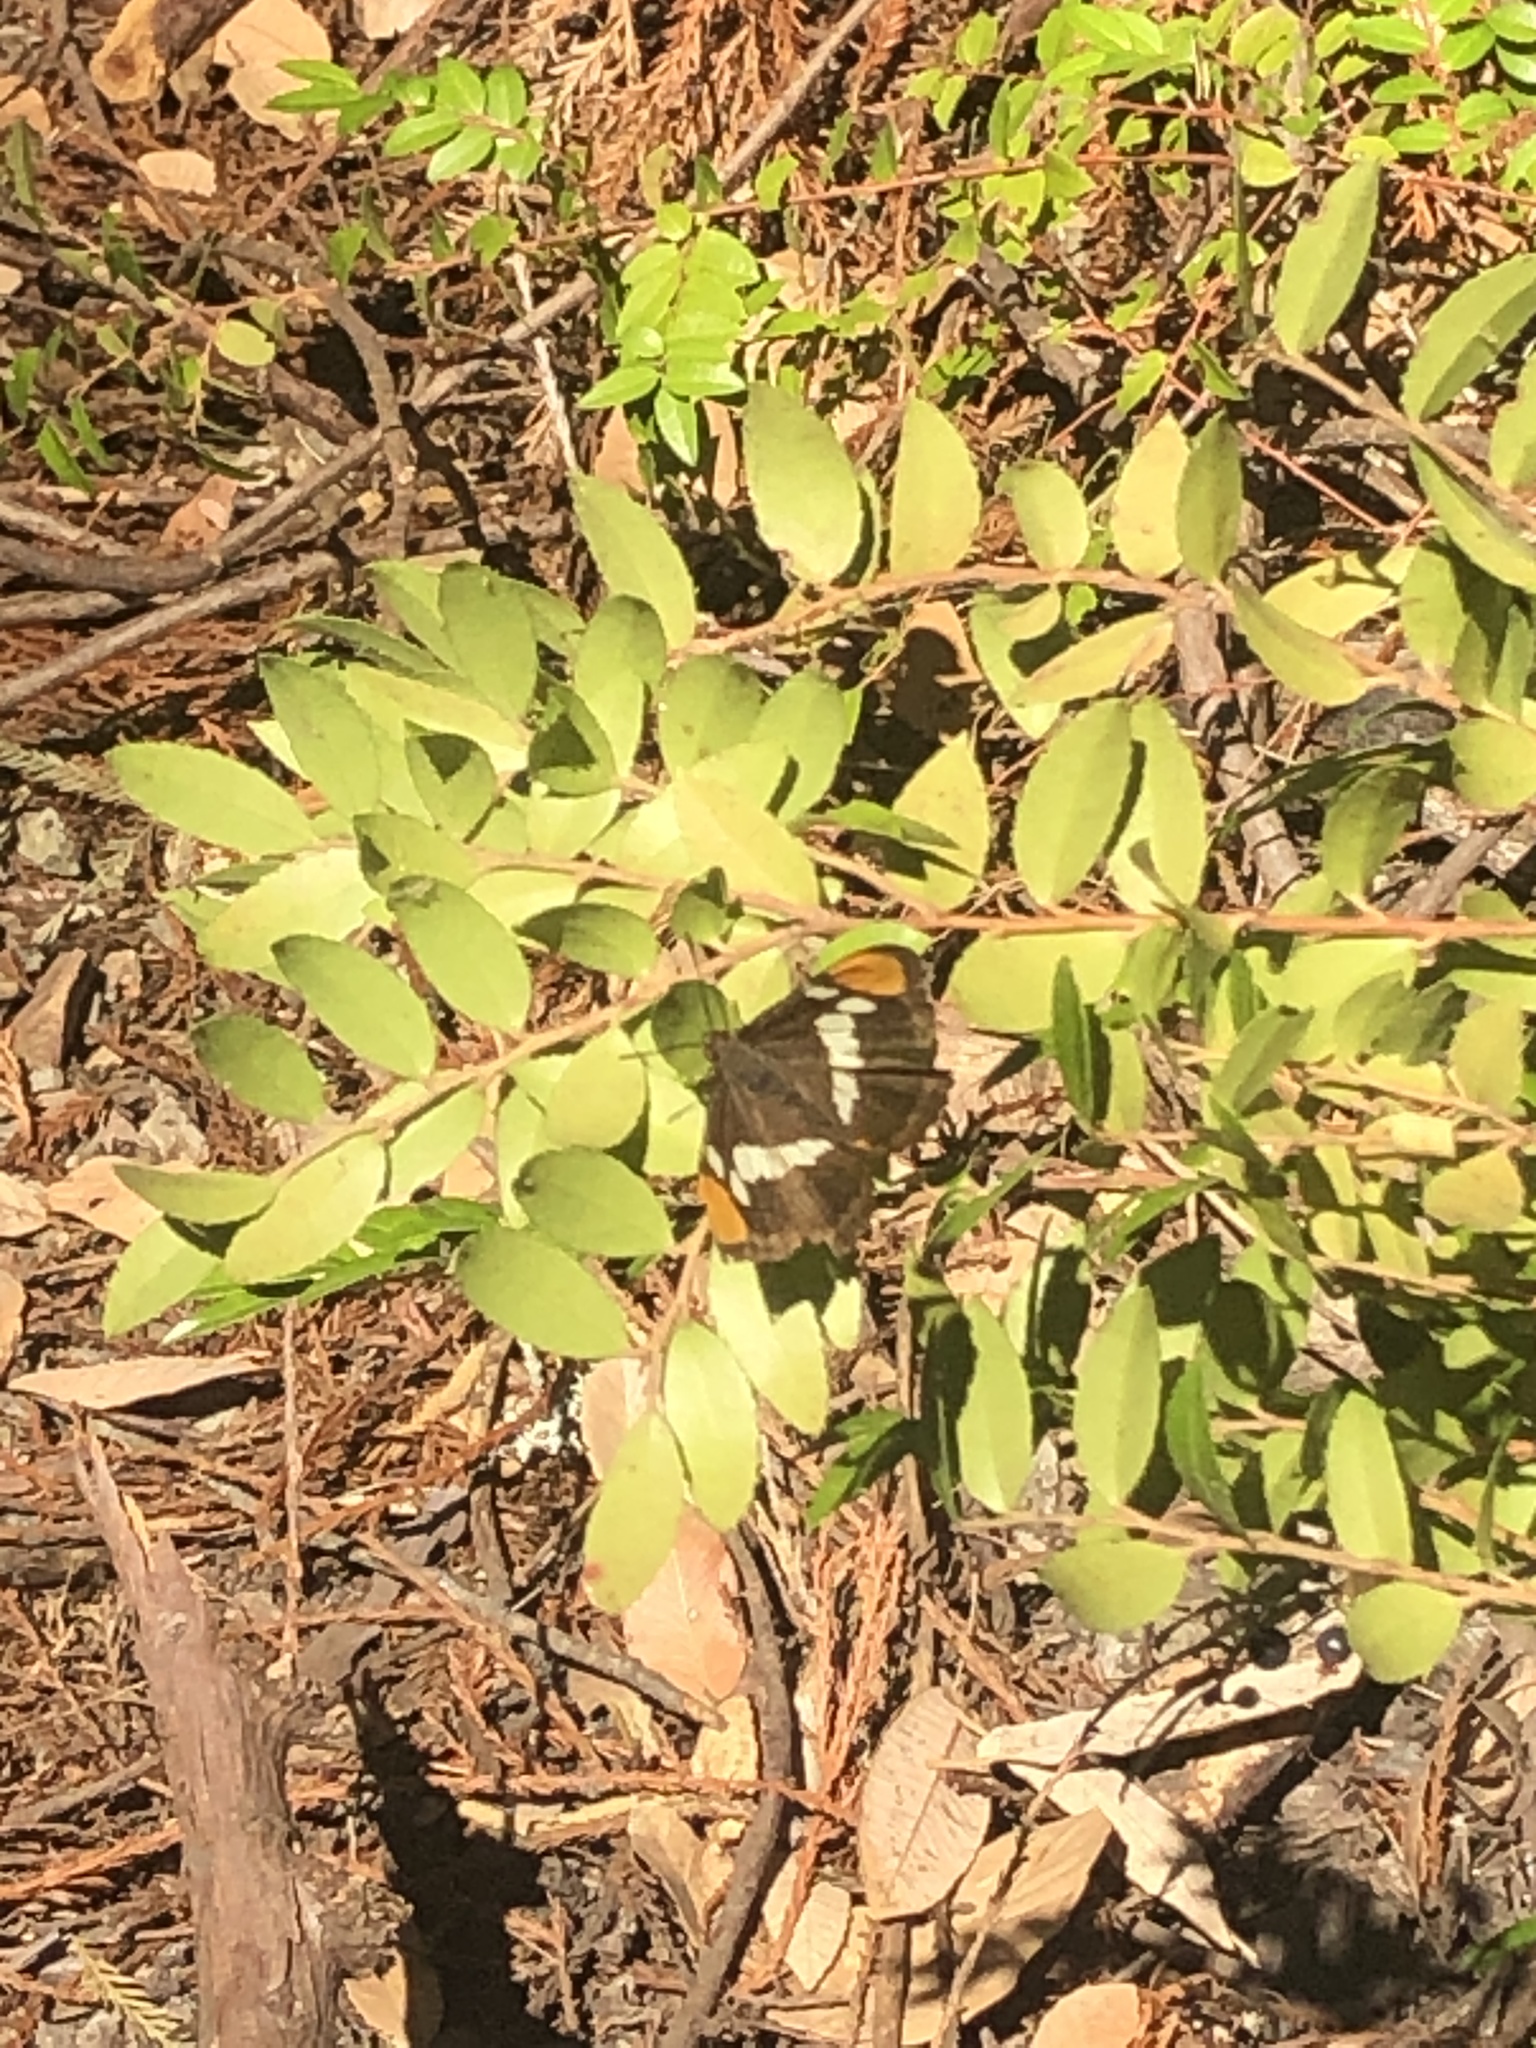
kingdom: Animalia
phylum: Arthropoda
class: Insecta
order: Lepidoptera
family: Nymphalidae
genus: Limenitis
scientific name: Limenitis bredowii
